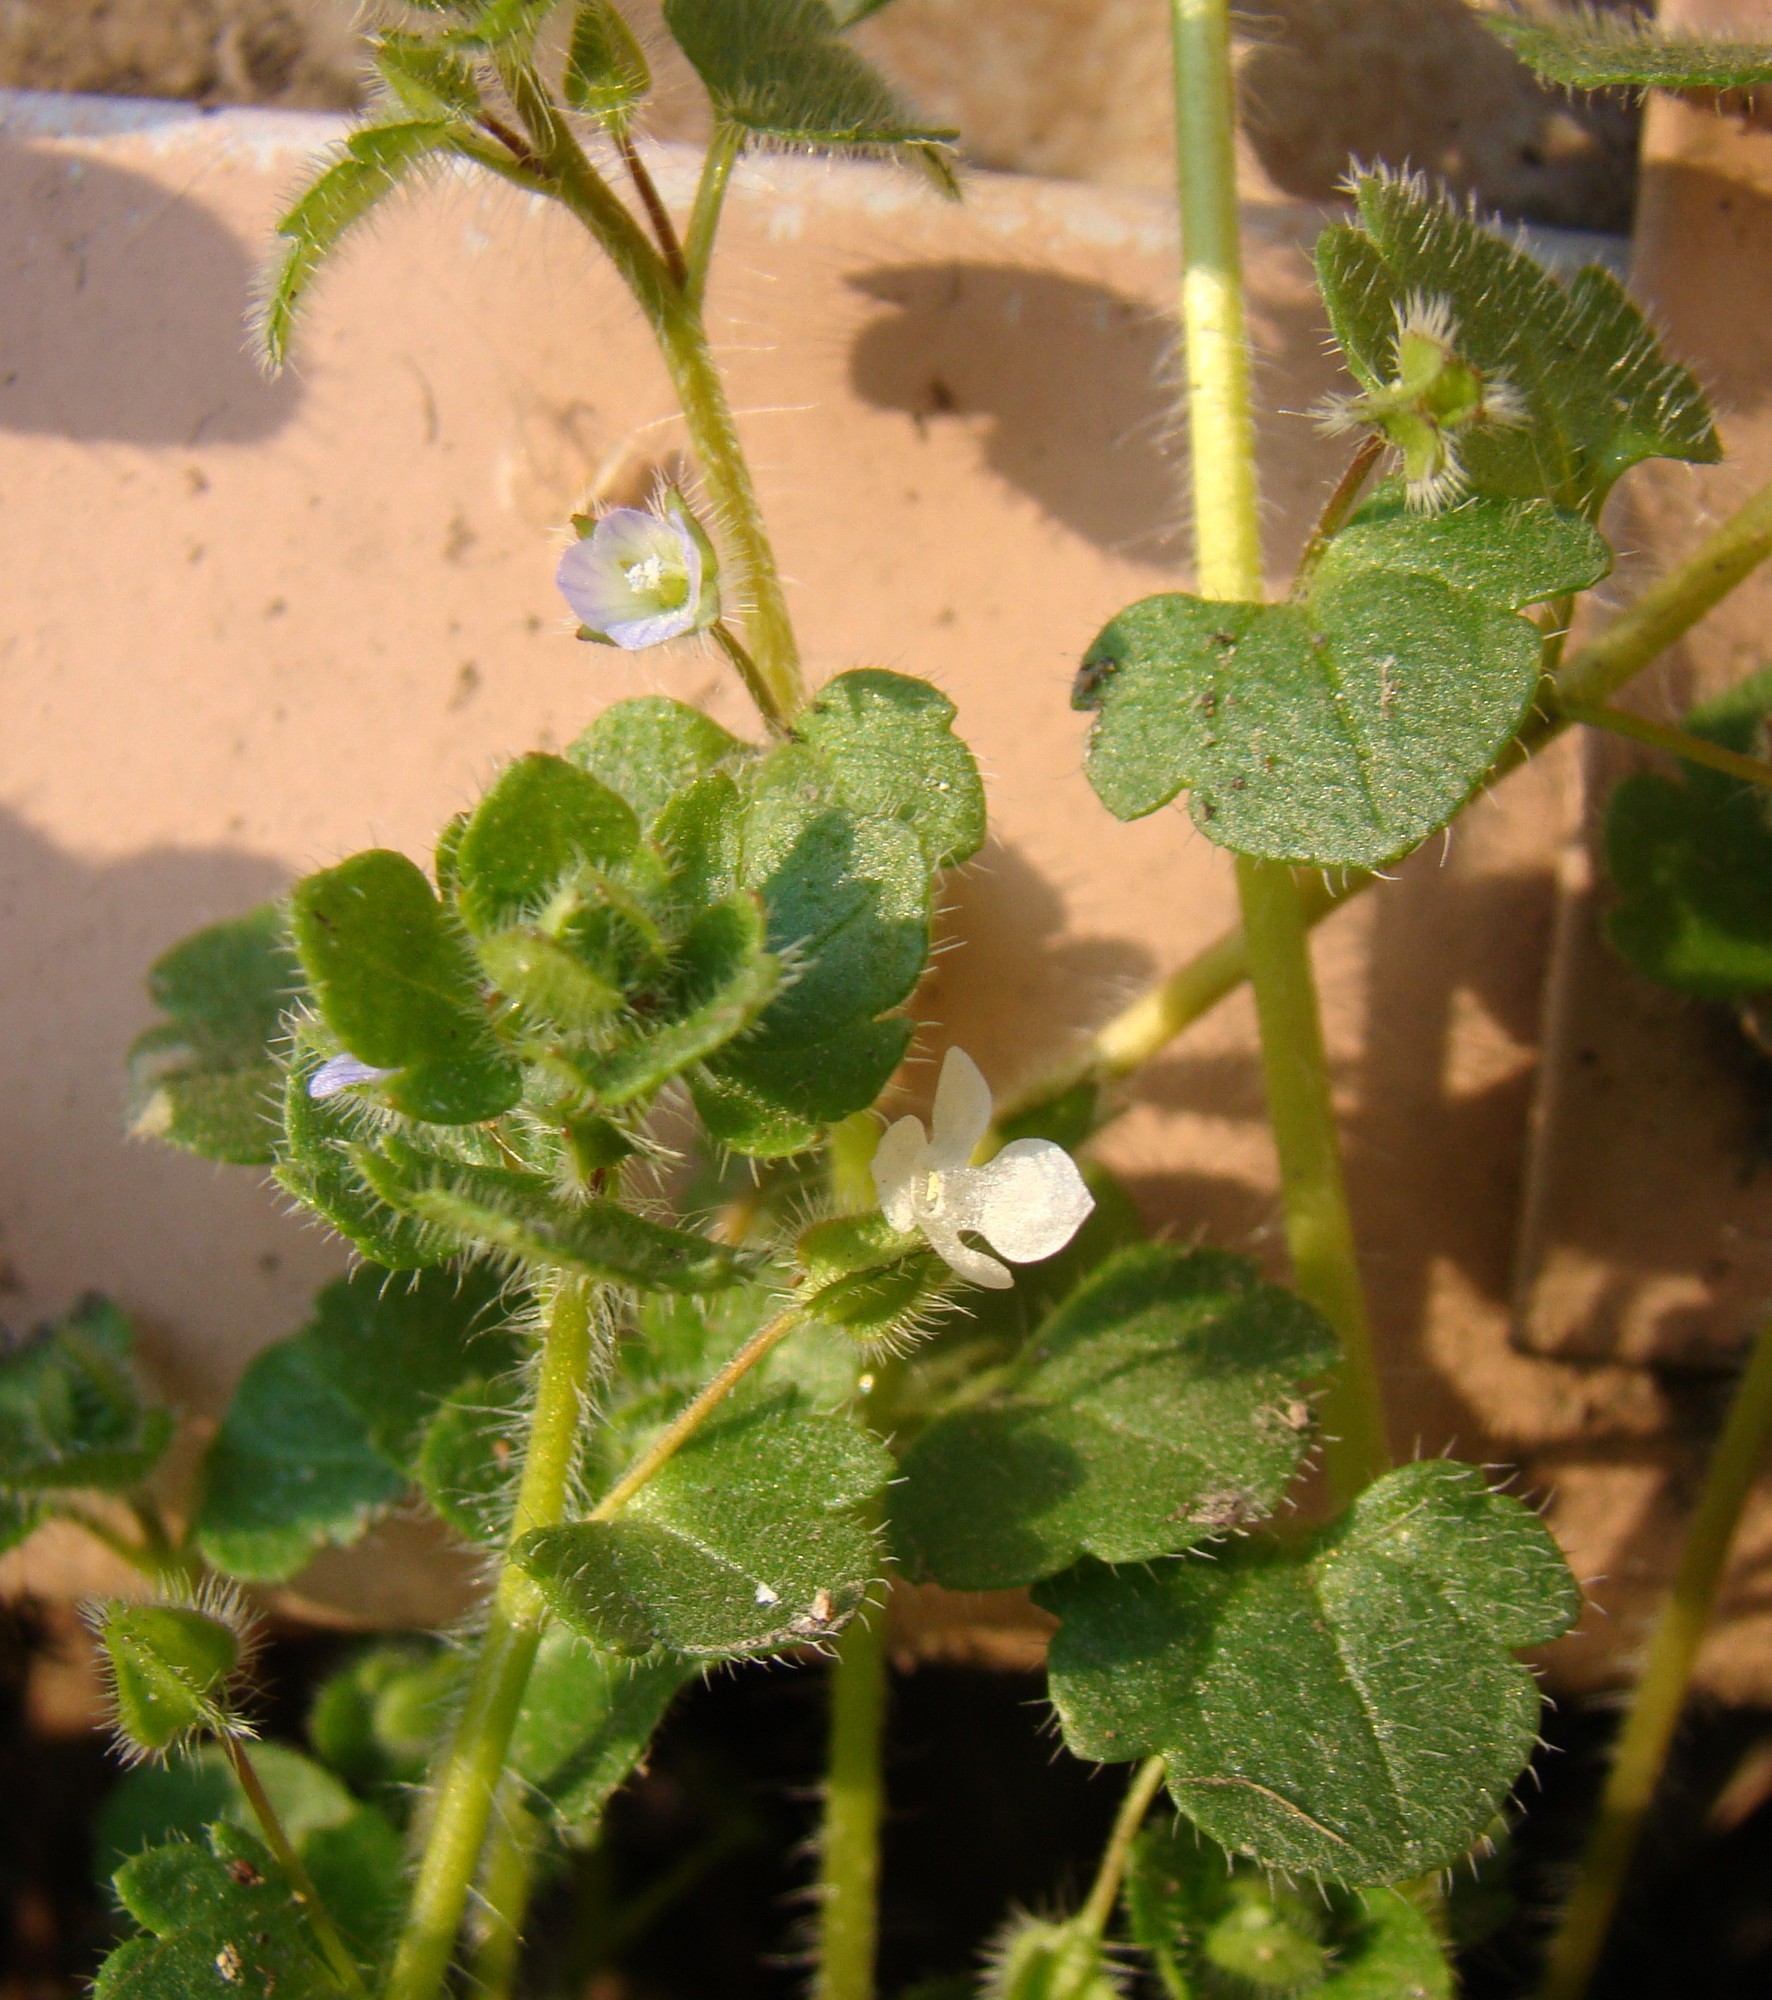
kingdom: Plantae
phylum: Tracheophyta
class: Magnoliopsida
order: Lamiales
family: Plantaginaceae
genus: Veronica
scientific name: Veronica hederifolia
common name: Ivy-leaved speedwell
